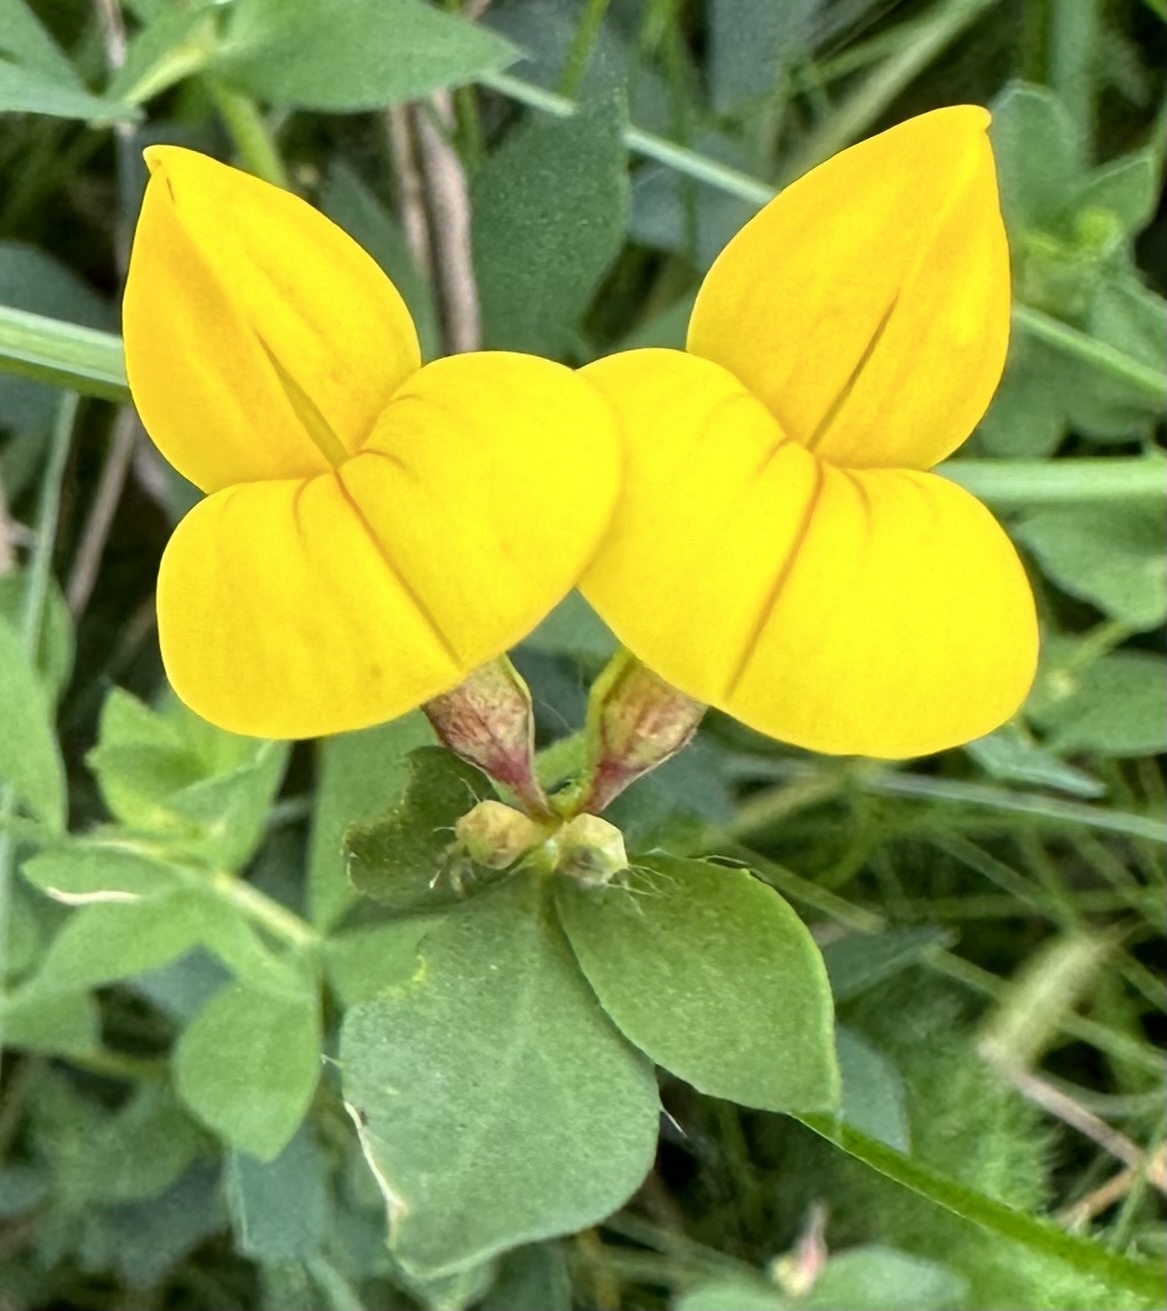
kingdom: Plantae
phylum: Tracheophyta
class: Magnoliopsida
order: Fabales
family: Fabaceae
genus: Lotus
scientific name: Lotus corniculatus
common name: Common bird's-foot-trefoil
